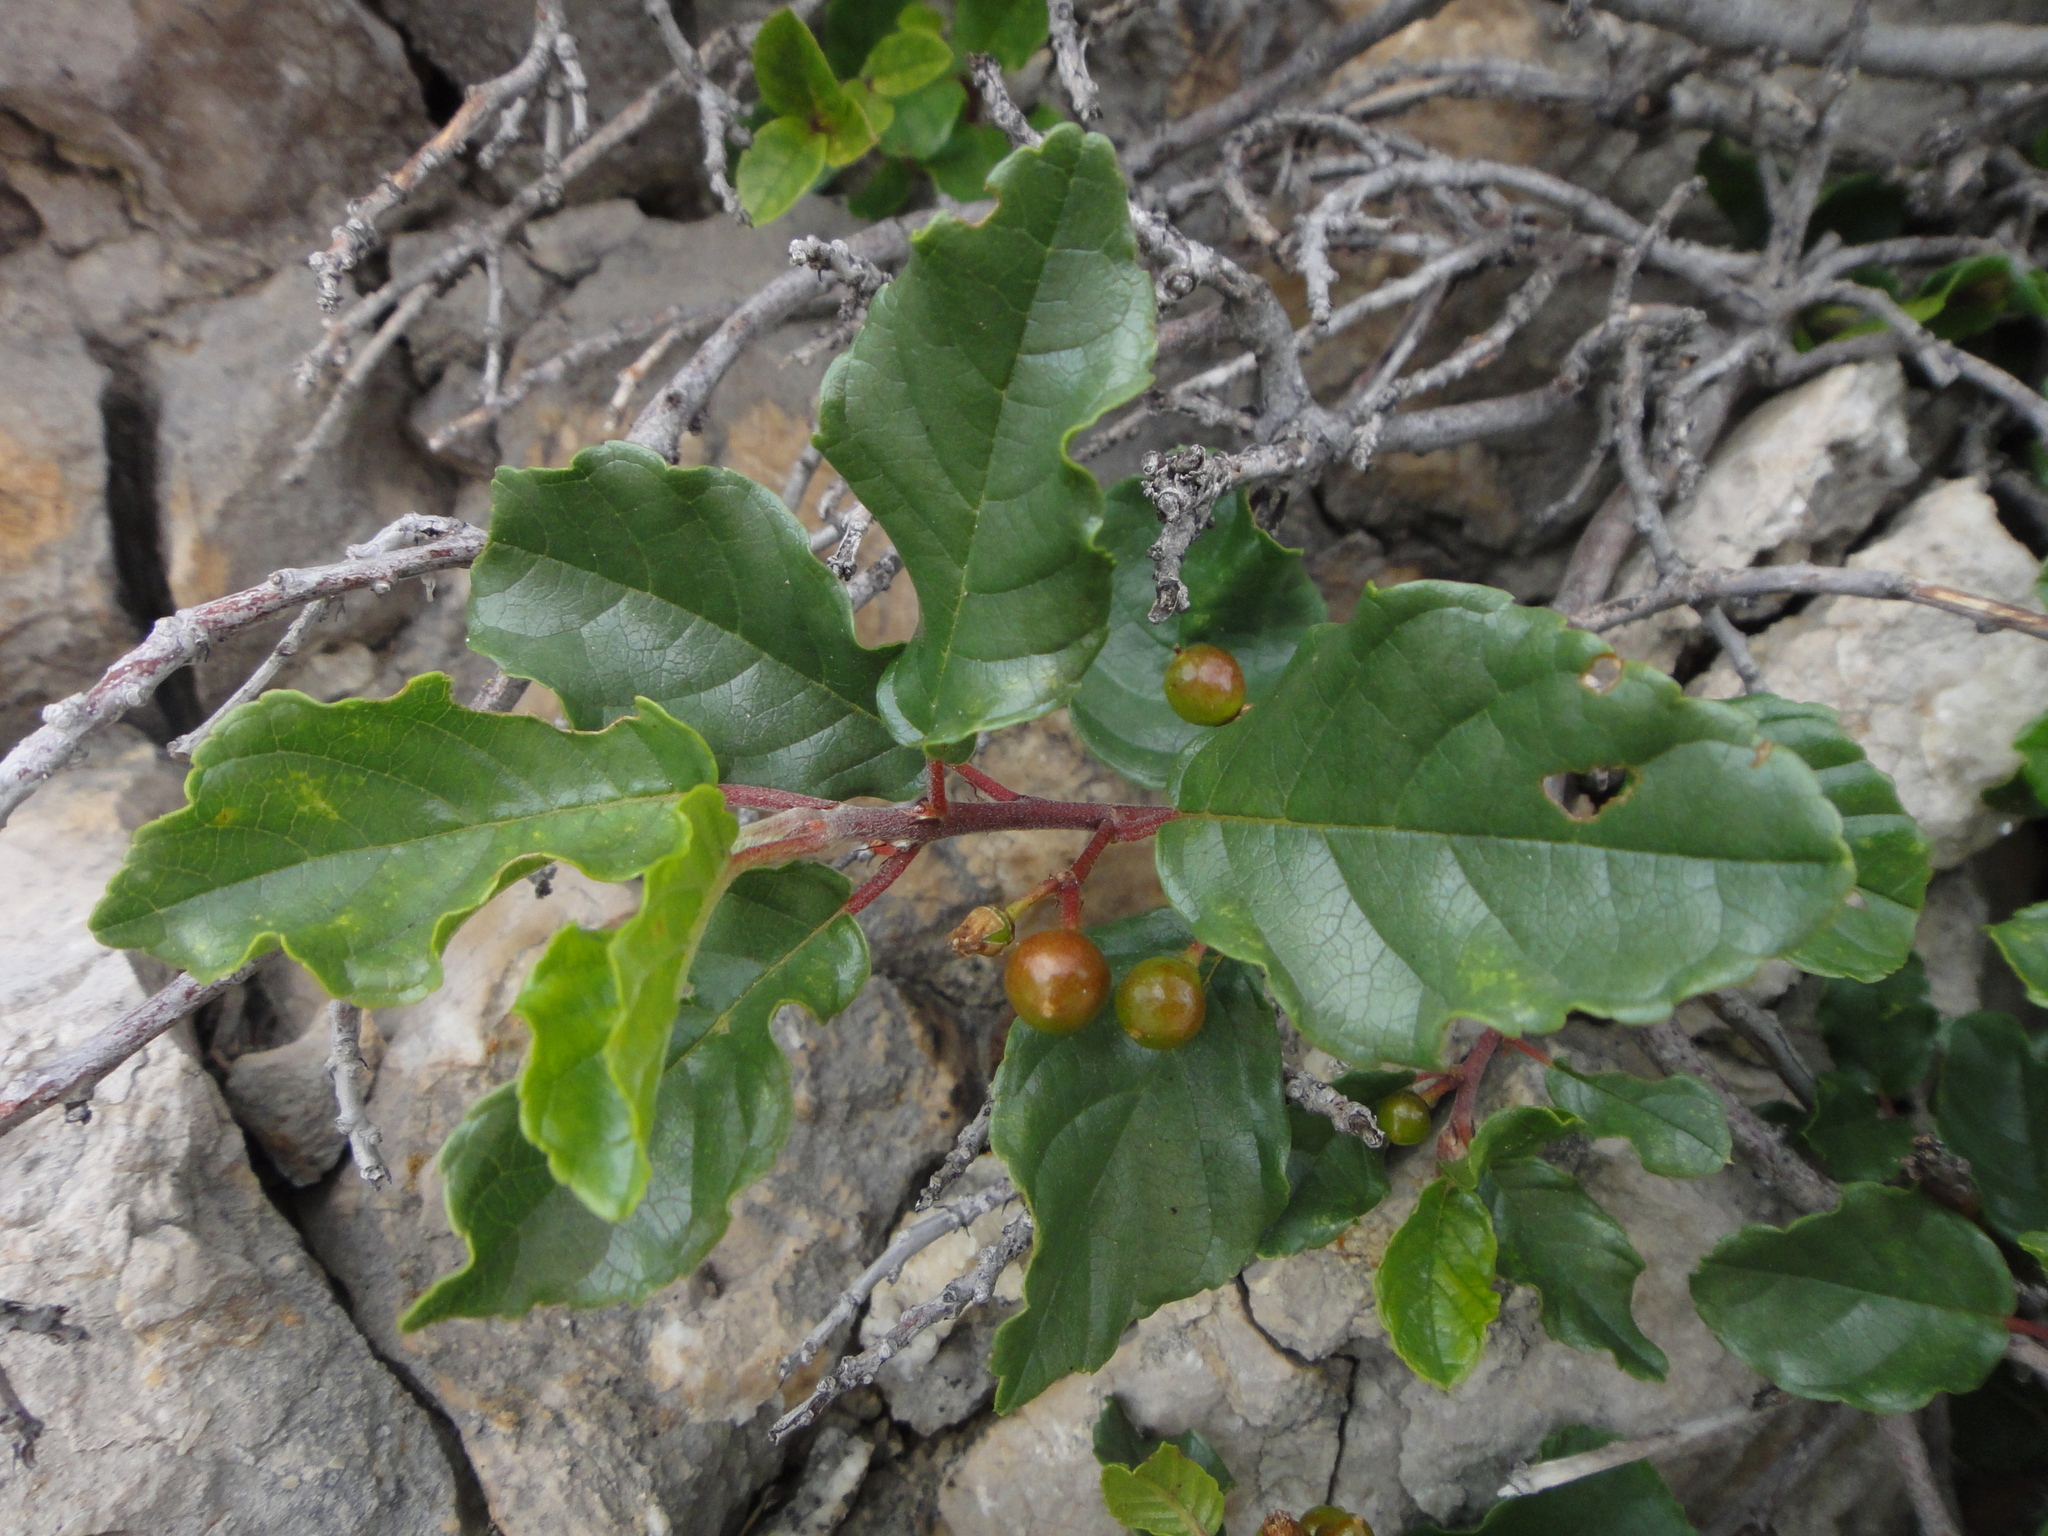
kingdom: Plantae
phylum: Tracheophyta
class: Magnoliopsida
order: Rosales
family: Rhamnaceae
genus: Frangula
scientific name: Frangula rupestris
